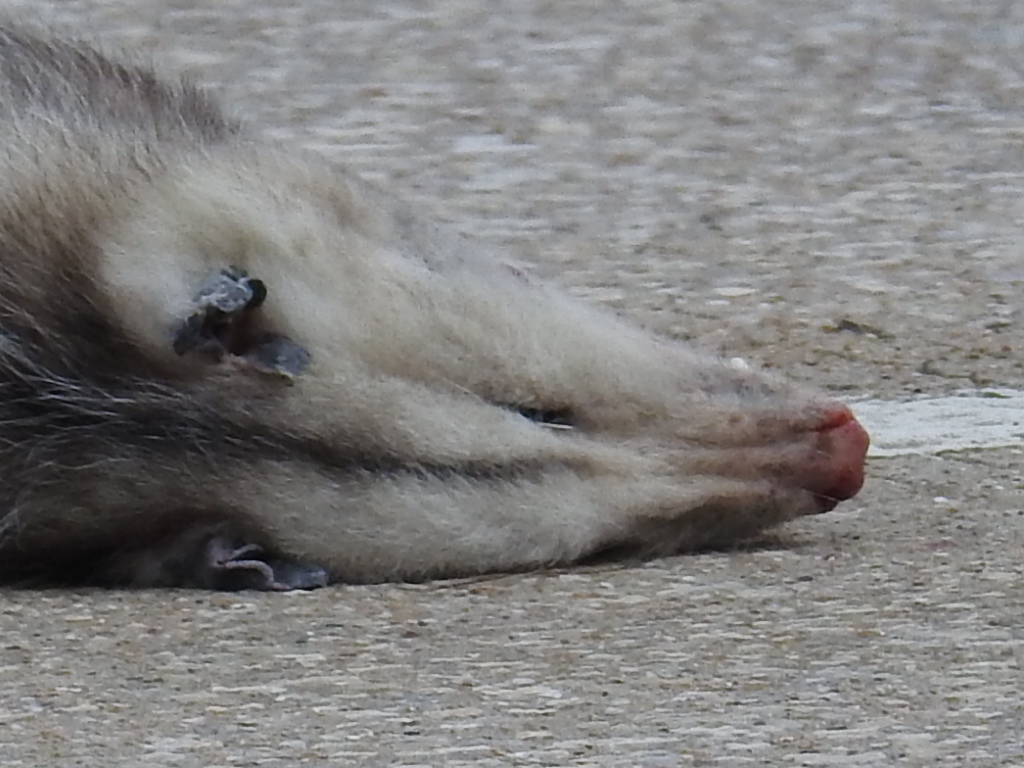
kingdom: Animalia
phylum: Chordata
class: Mammalia
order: Didelphimorphia
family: Didelphidae
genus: Didelphis
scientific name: Didelphis virginiana
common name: Virginia opossum
